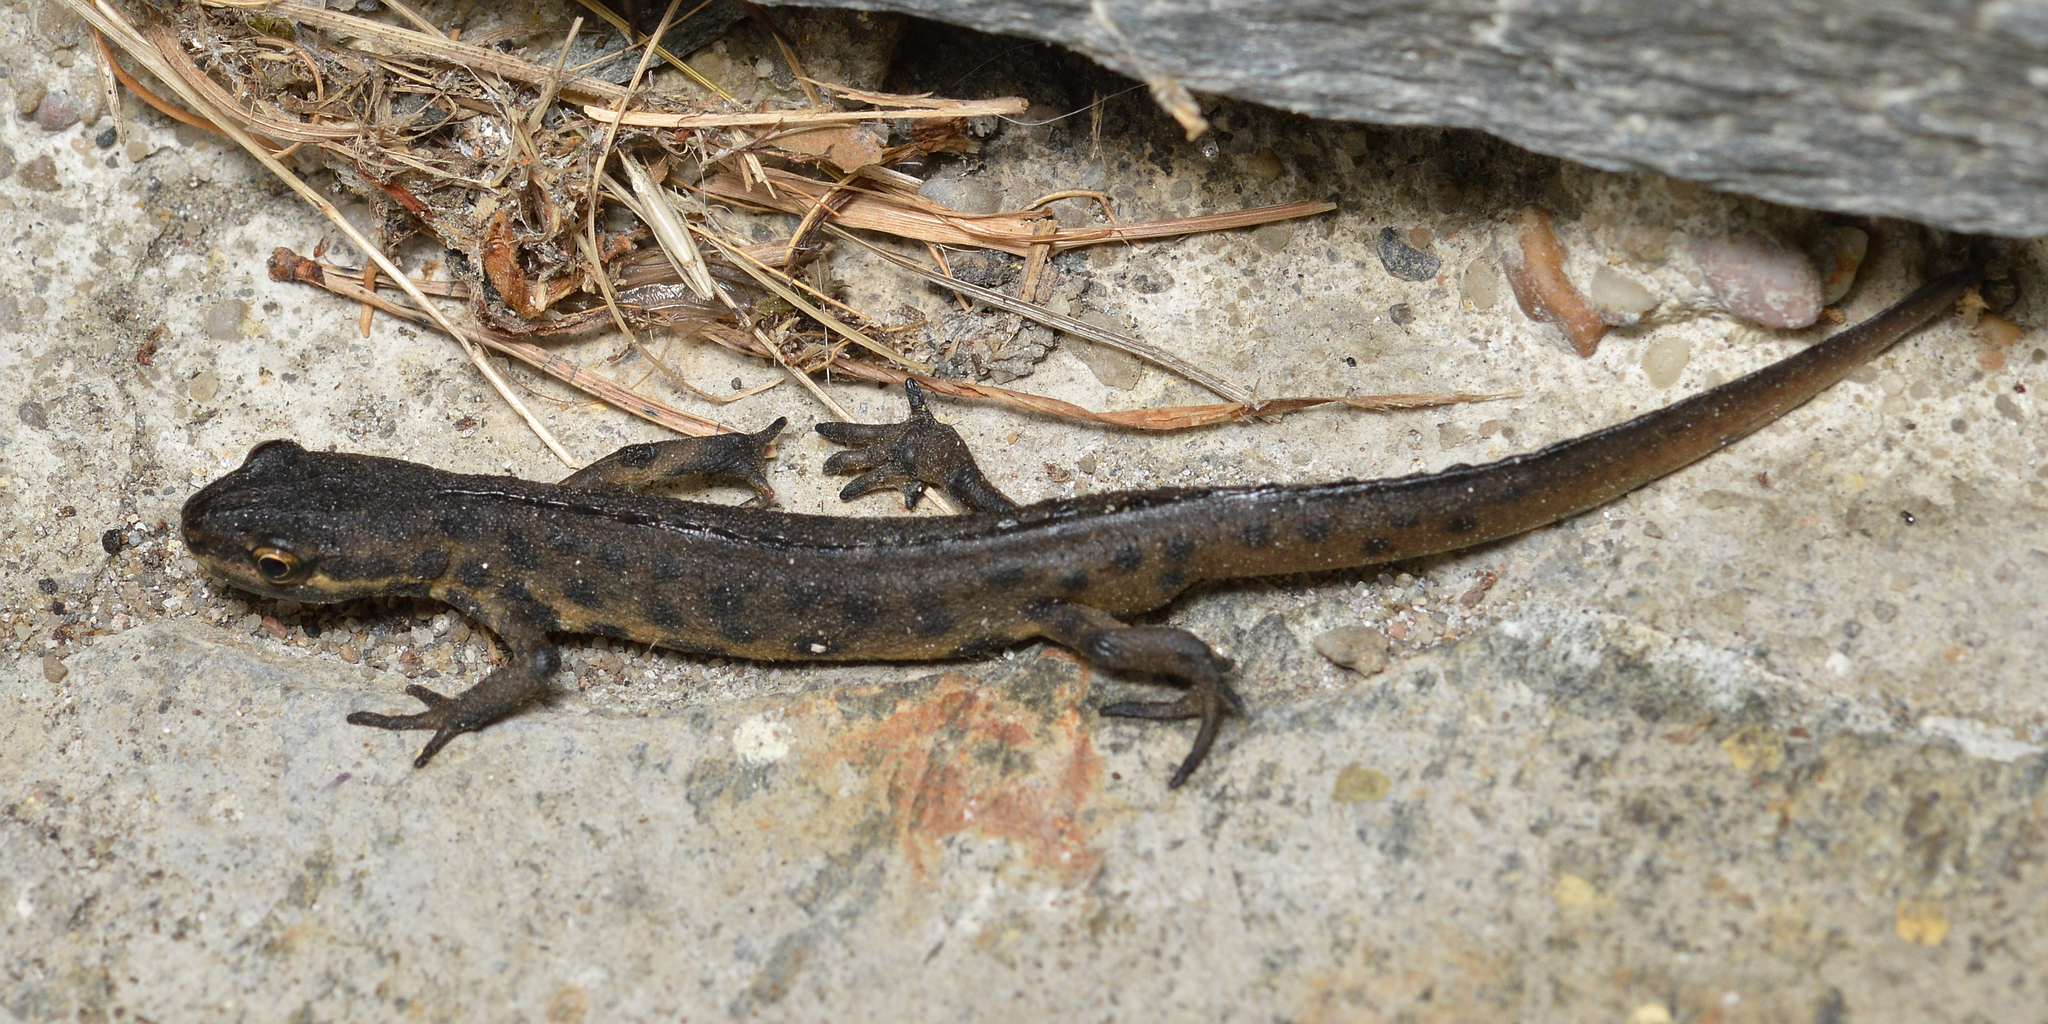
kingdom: Animalia
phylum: Chordata
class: Amphibia
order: Caudata
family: Salamandridae
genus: Lissotriton
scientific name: Lissotriton vulgaris
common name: Smooth newt
